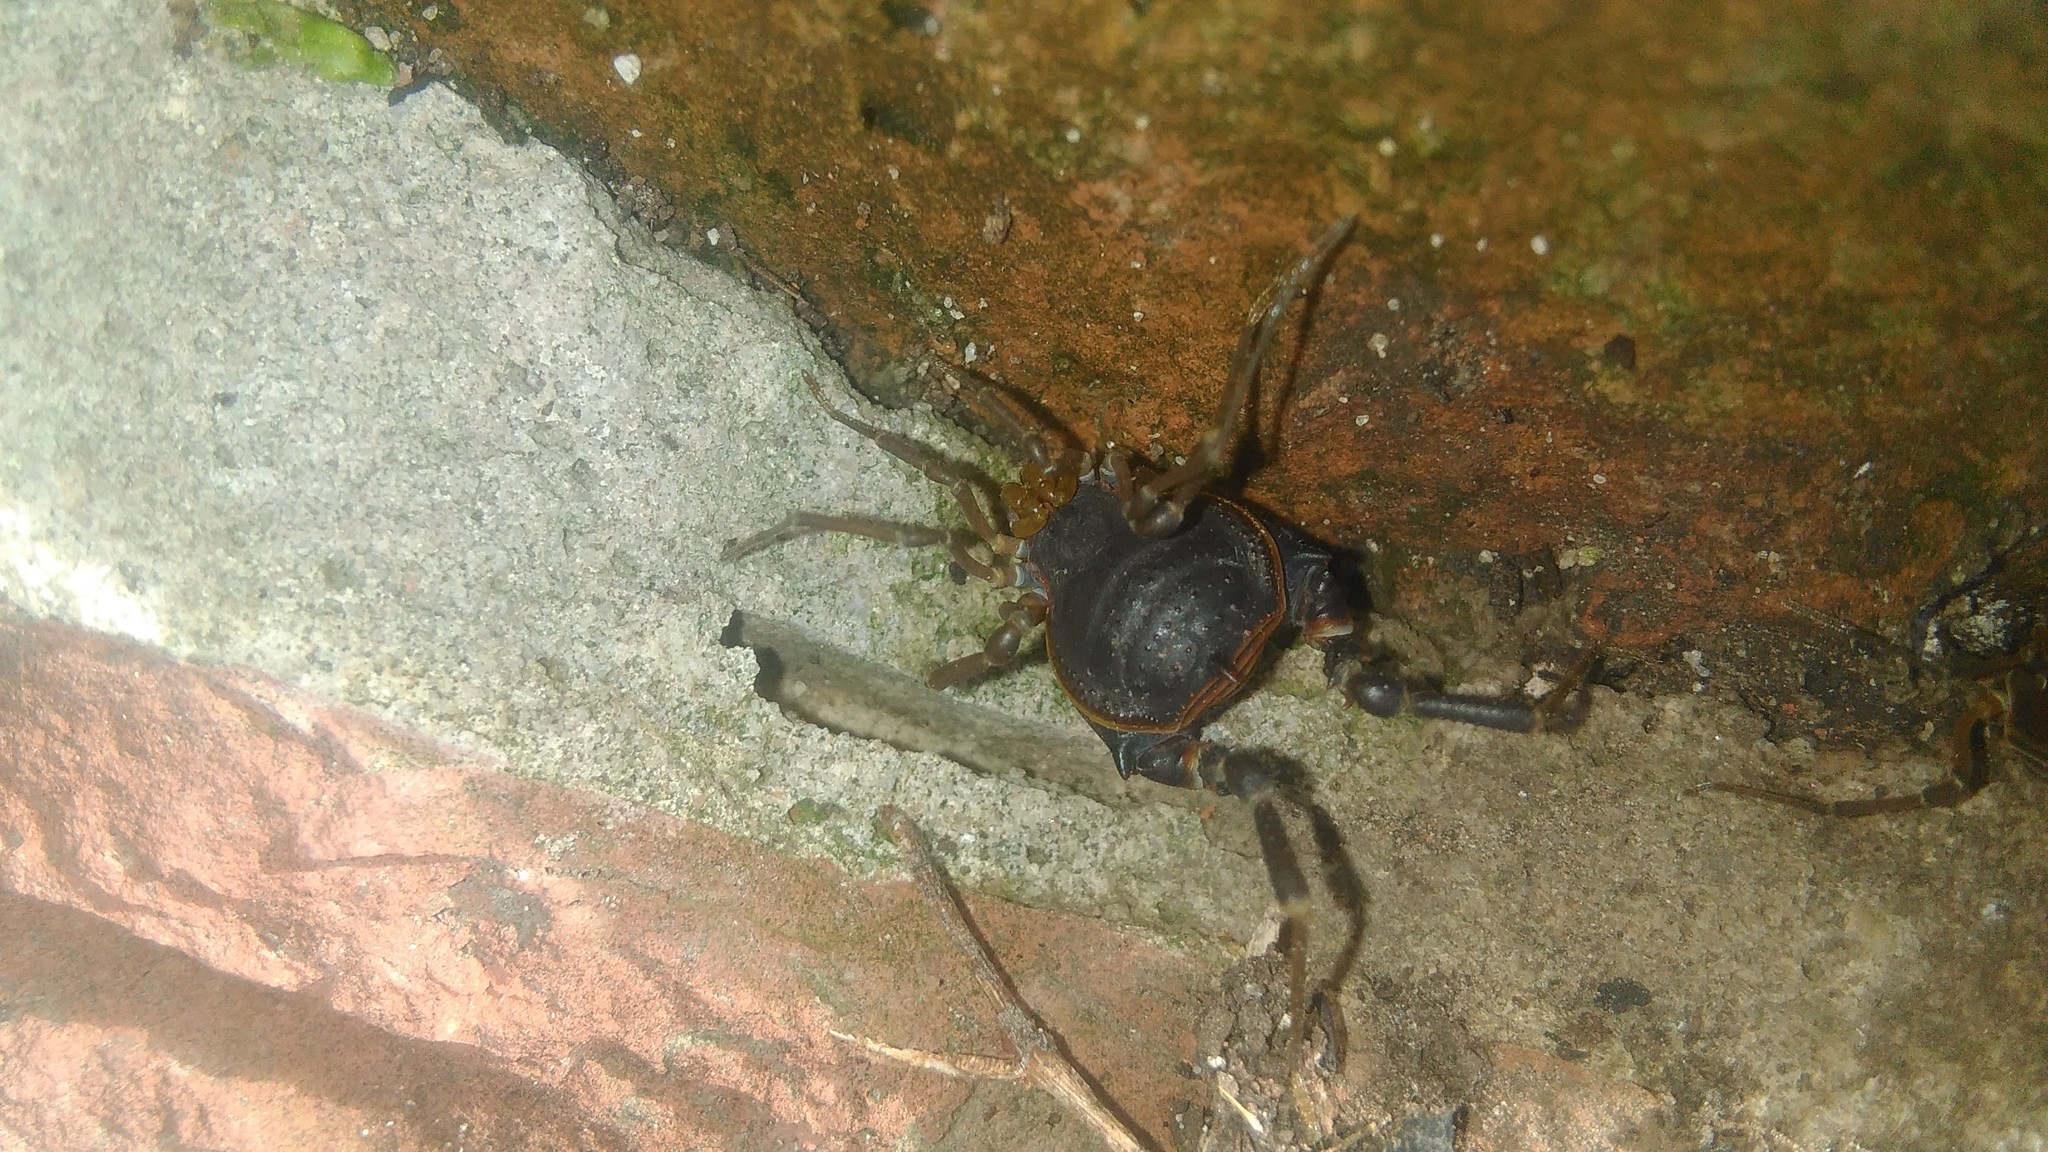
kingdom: Animalia
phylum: Arthropoda
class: Arachnida
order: Opiliones
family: Gonyleptidae
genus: Acanthopachylus
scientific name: Acanthopachylus robustus
